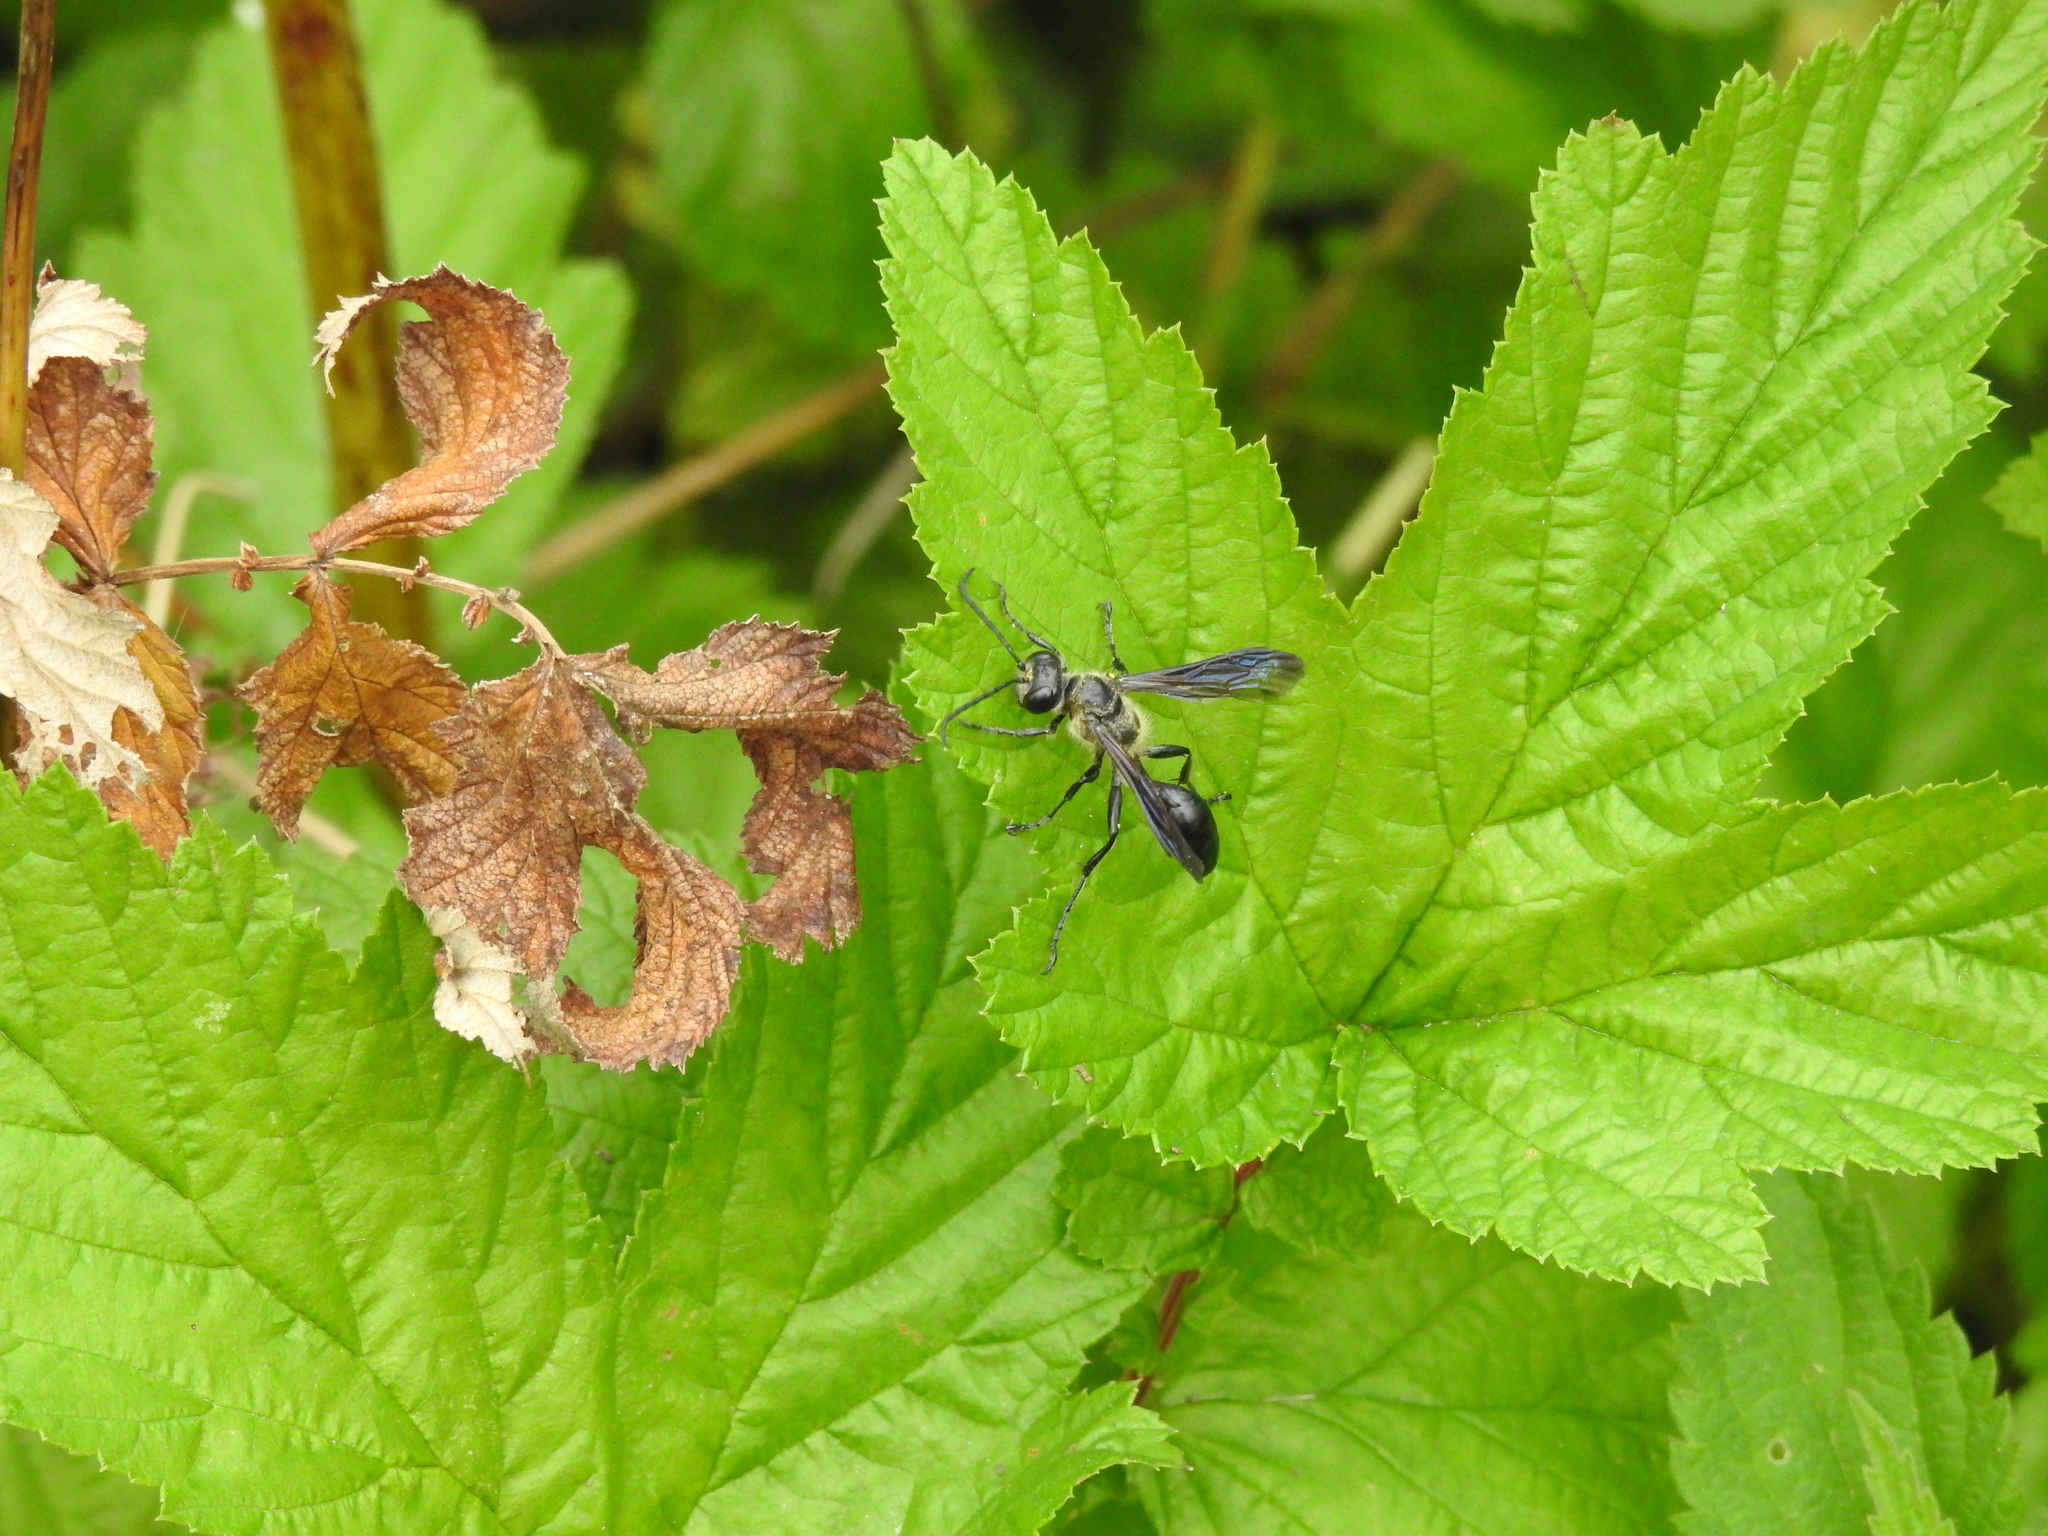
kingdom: Animalia
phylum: Arthropoda
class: Insecta
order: Hymenoptera
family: Sphecidae
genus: Isodontia
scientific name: Isodontia mexicana
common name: Mud dauber
